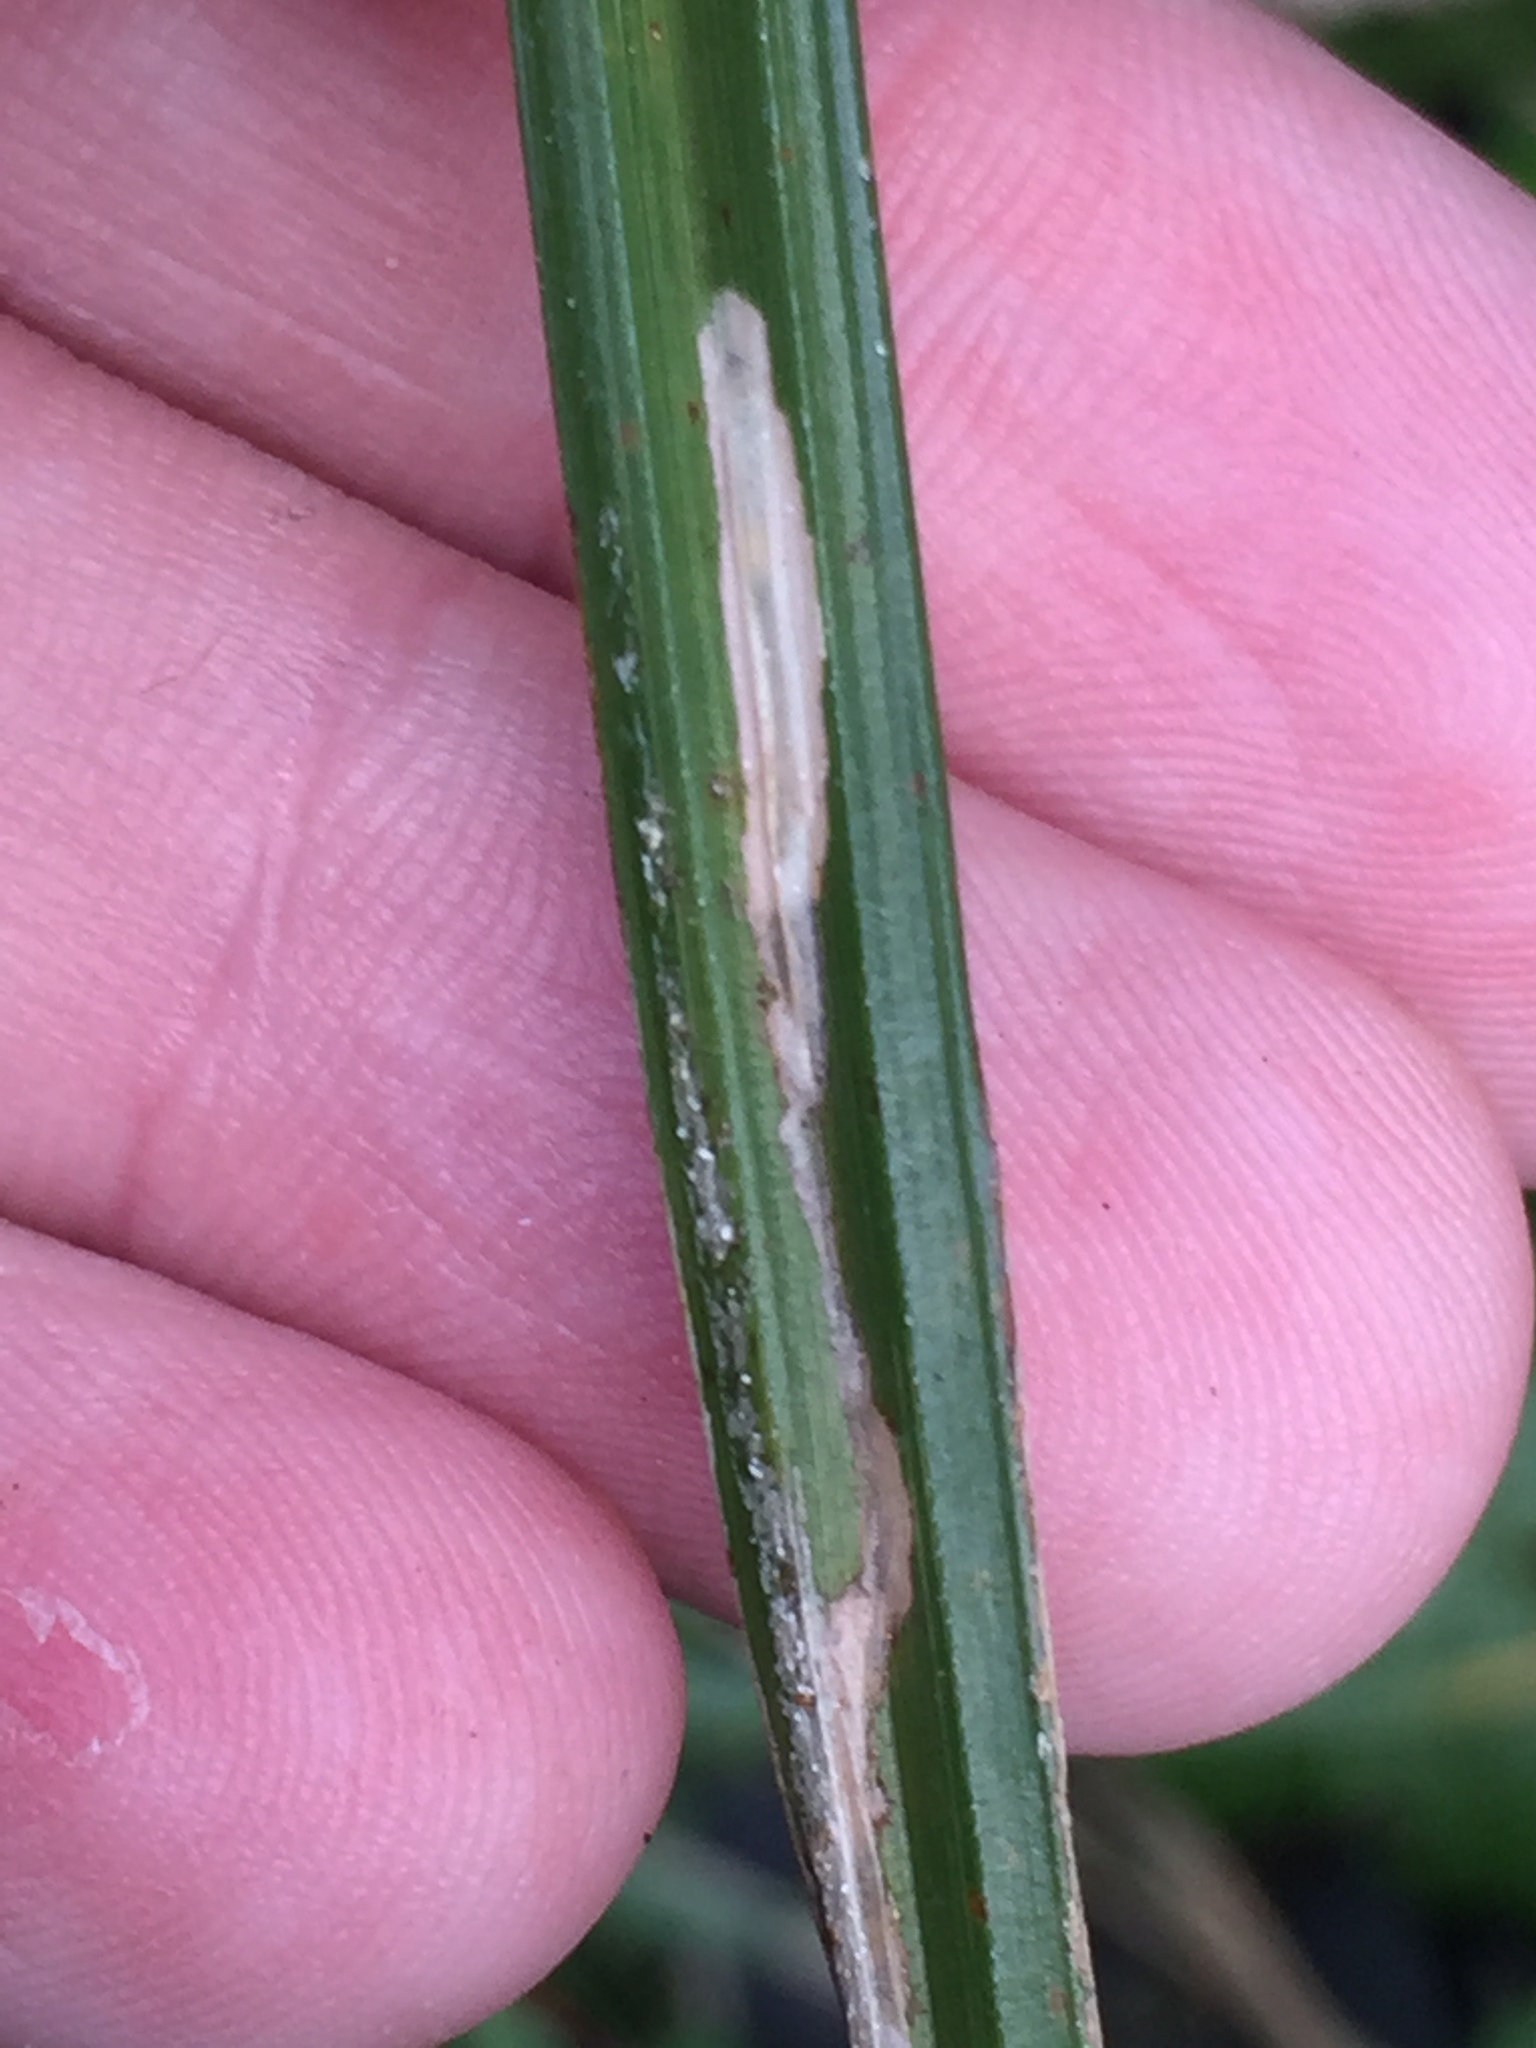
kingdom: Animalia
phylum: Arthropoda
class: Insecta
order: Lepidoptera
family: Cosmopterigidae
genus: Cosmopterix
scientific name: Cosmopterix attenuatella
